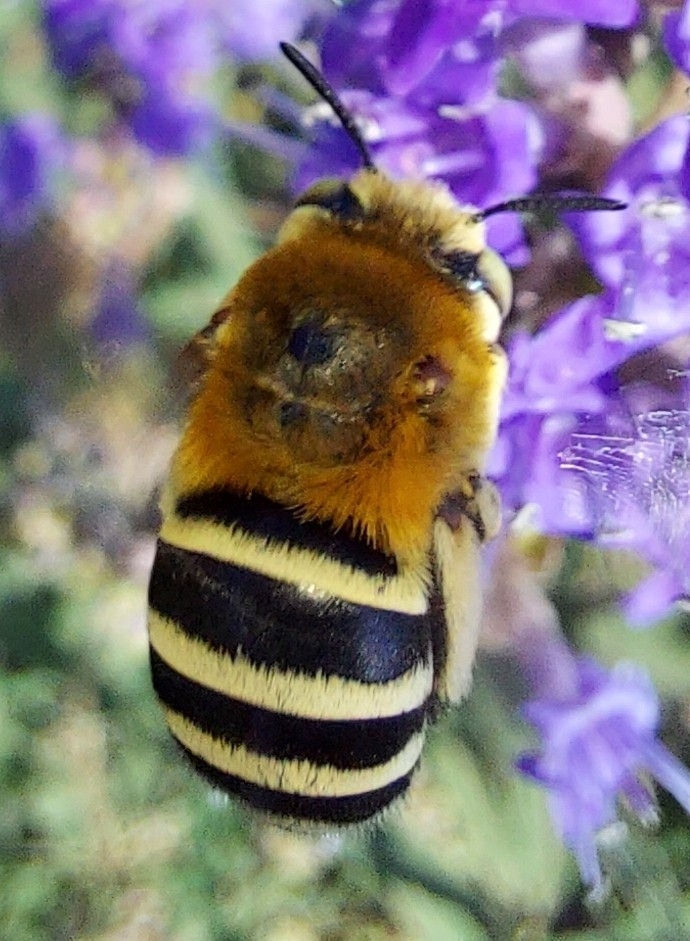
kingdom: Animalia
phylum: Arthropoda
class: Insecta
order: Hymenoptera
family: Apidae
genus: Amegilla
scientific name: Amegilla quadrifasciata
